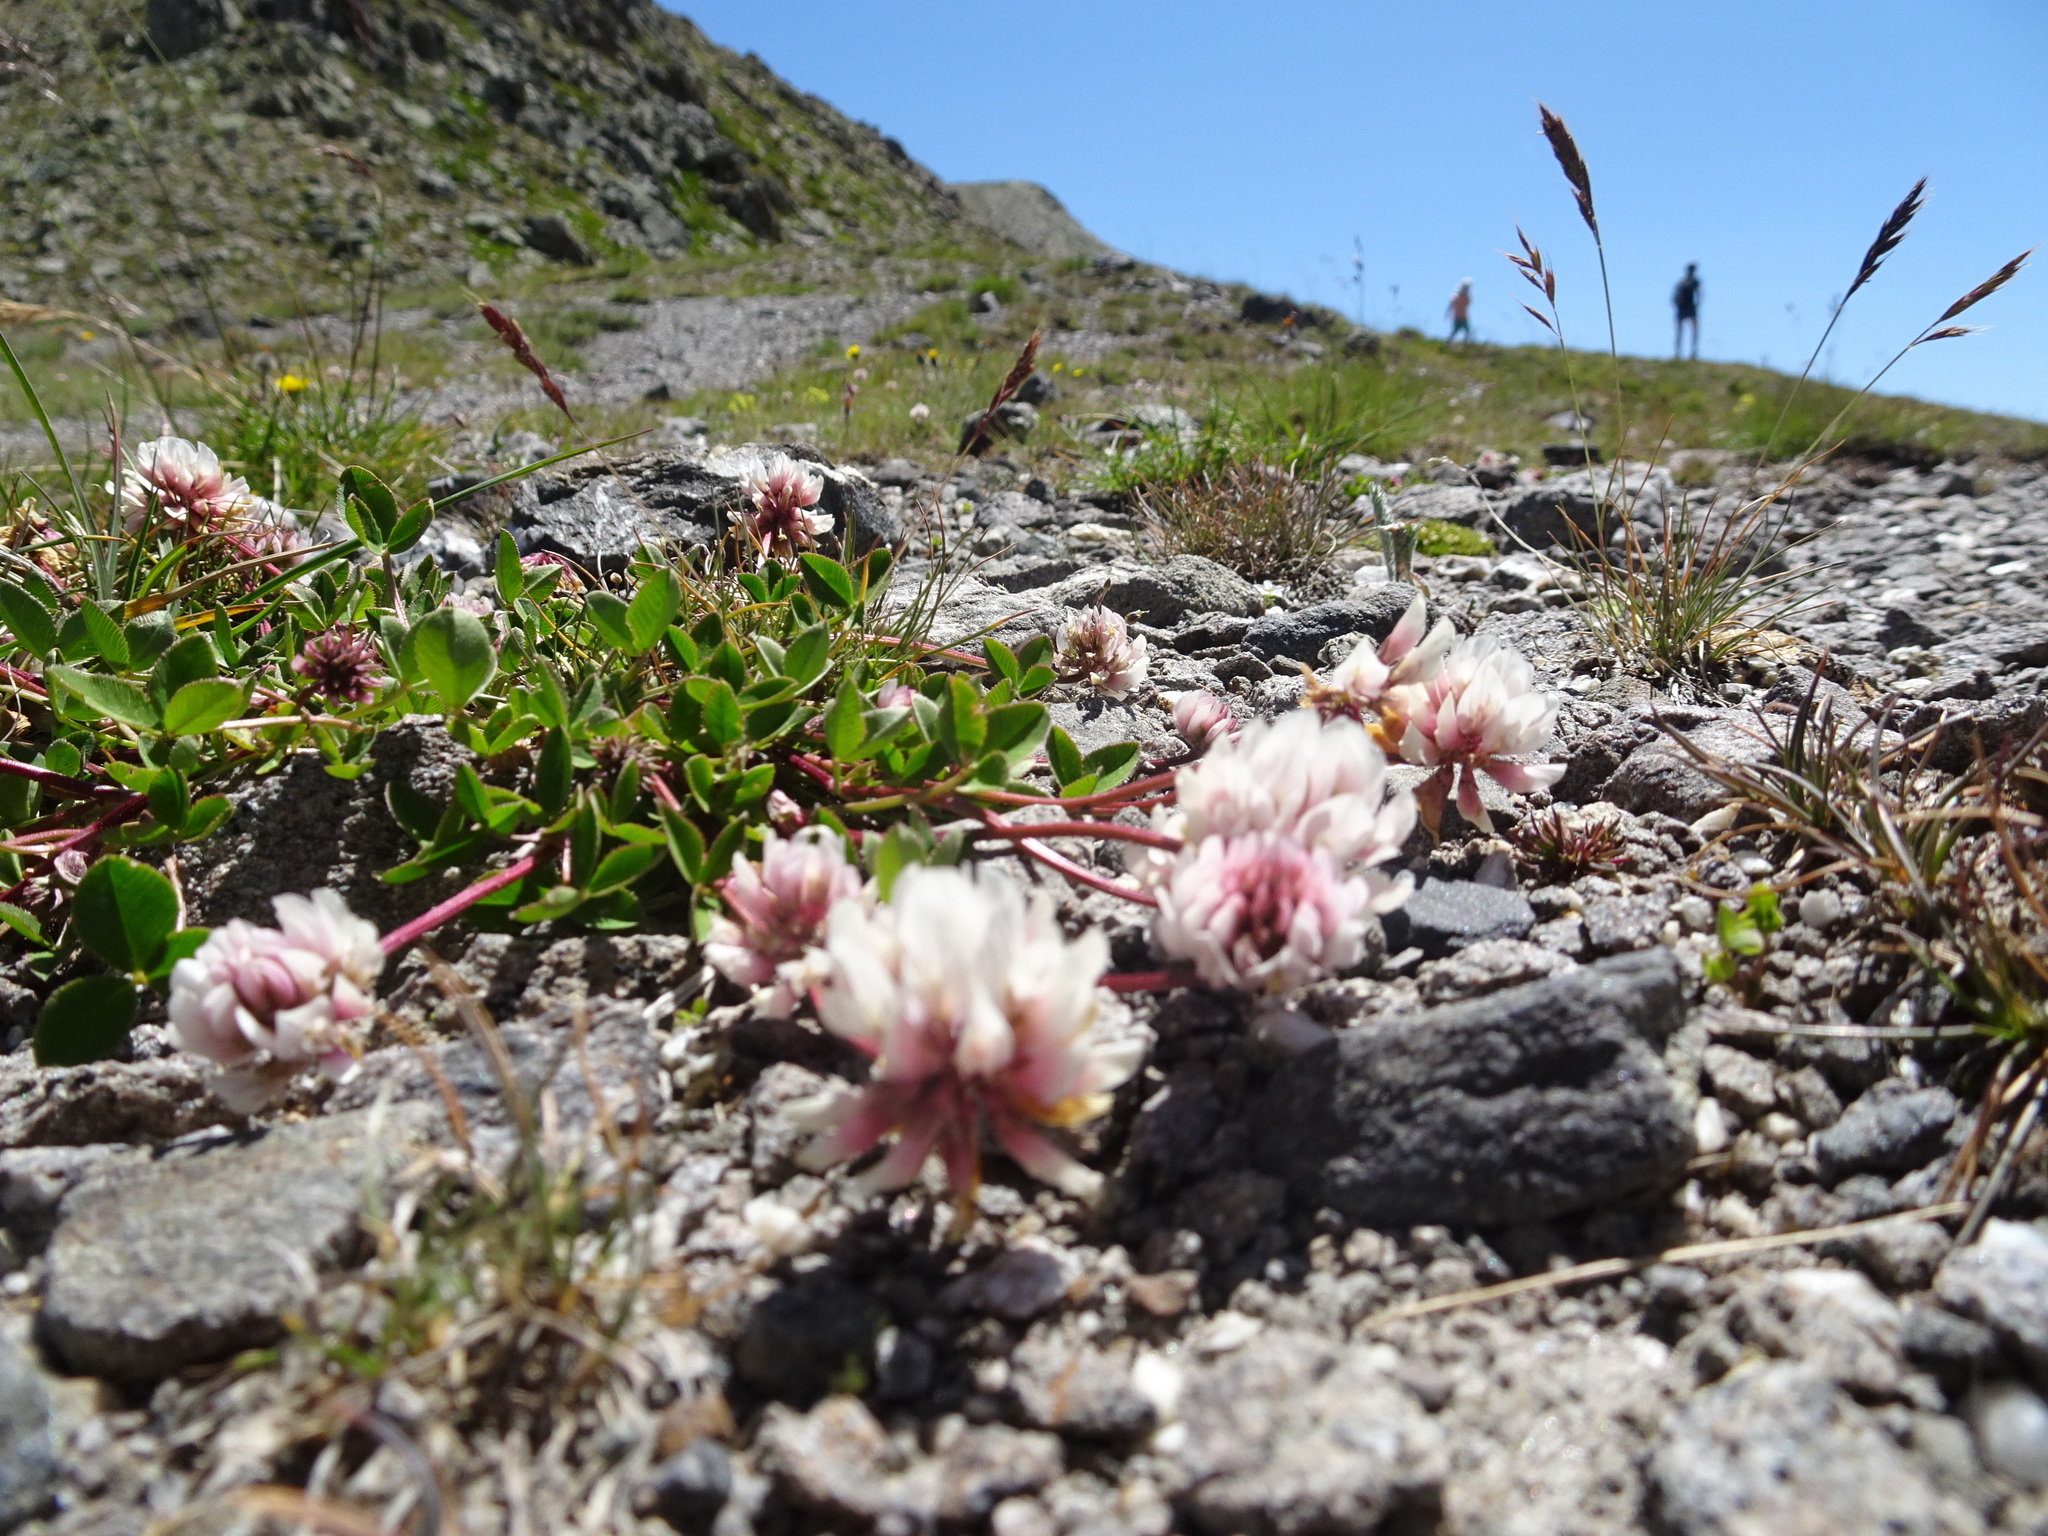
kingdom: Plantae
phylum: Tracheophyta
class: Magnoliopsida
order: Fabales
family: Fabaceae
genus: Trifolium
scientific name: Trifolium pallescens
